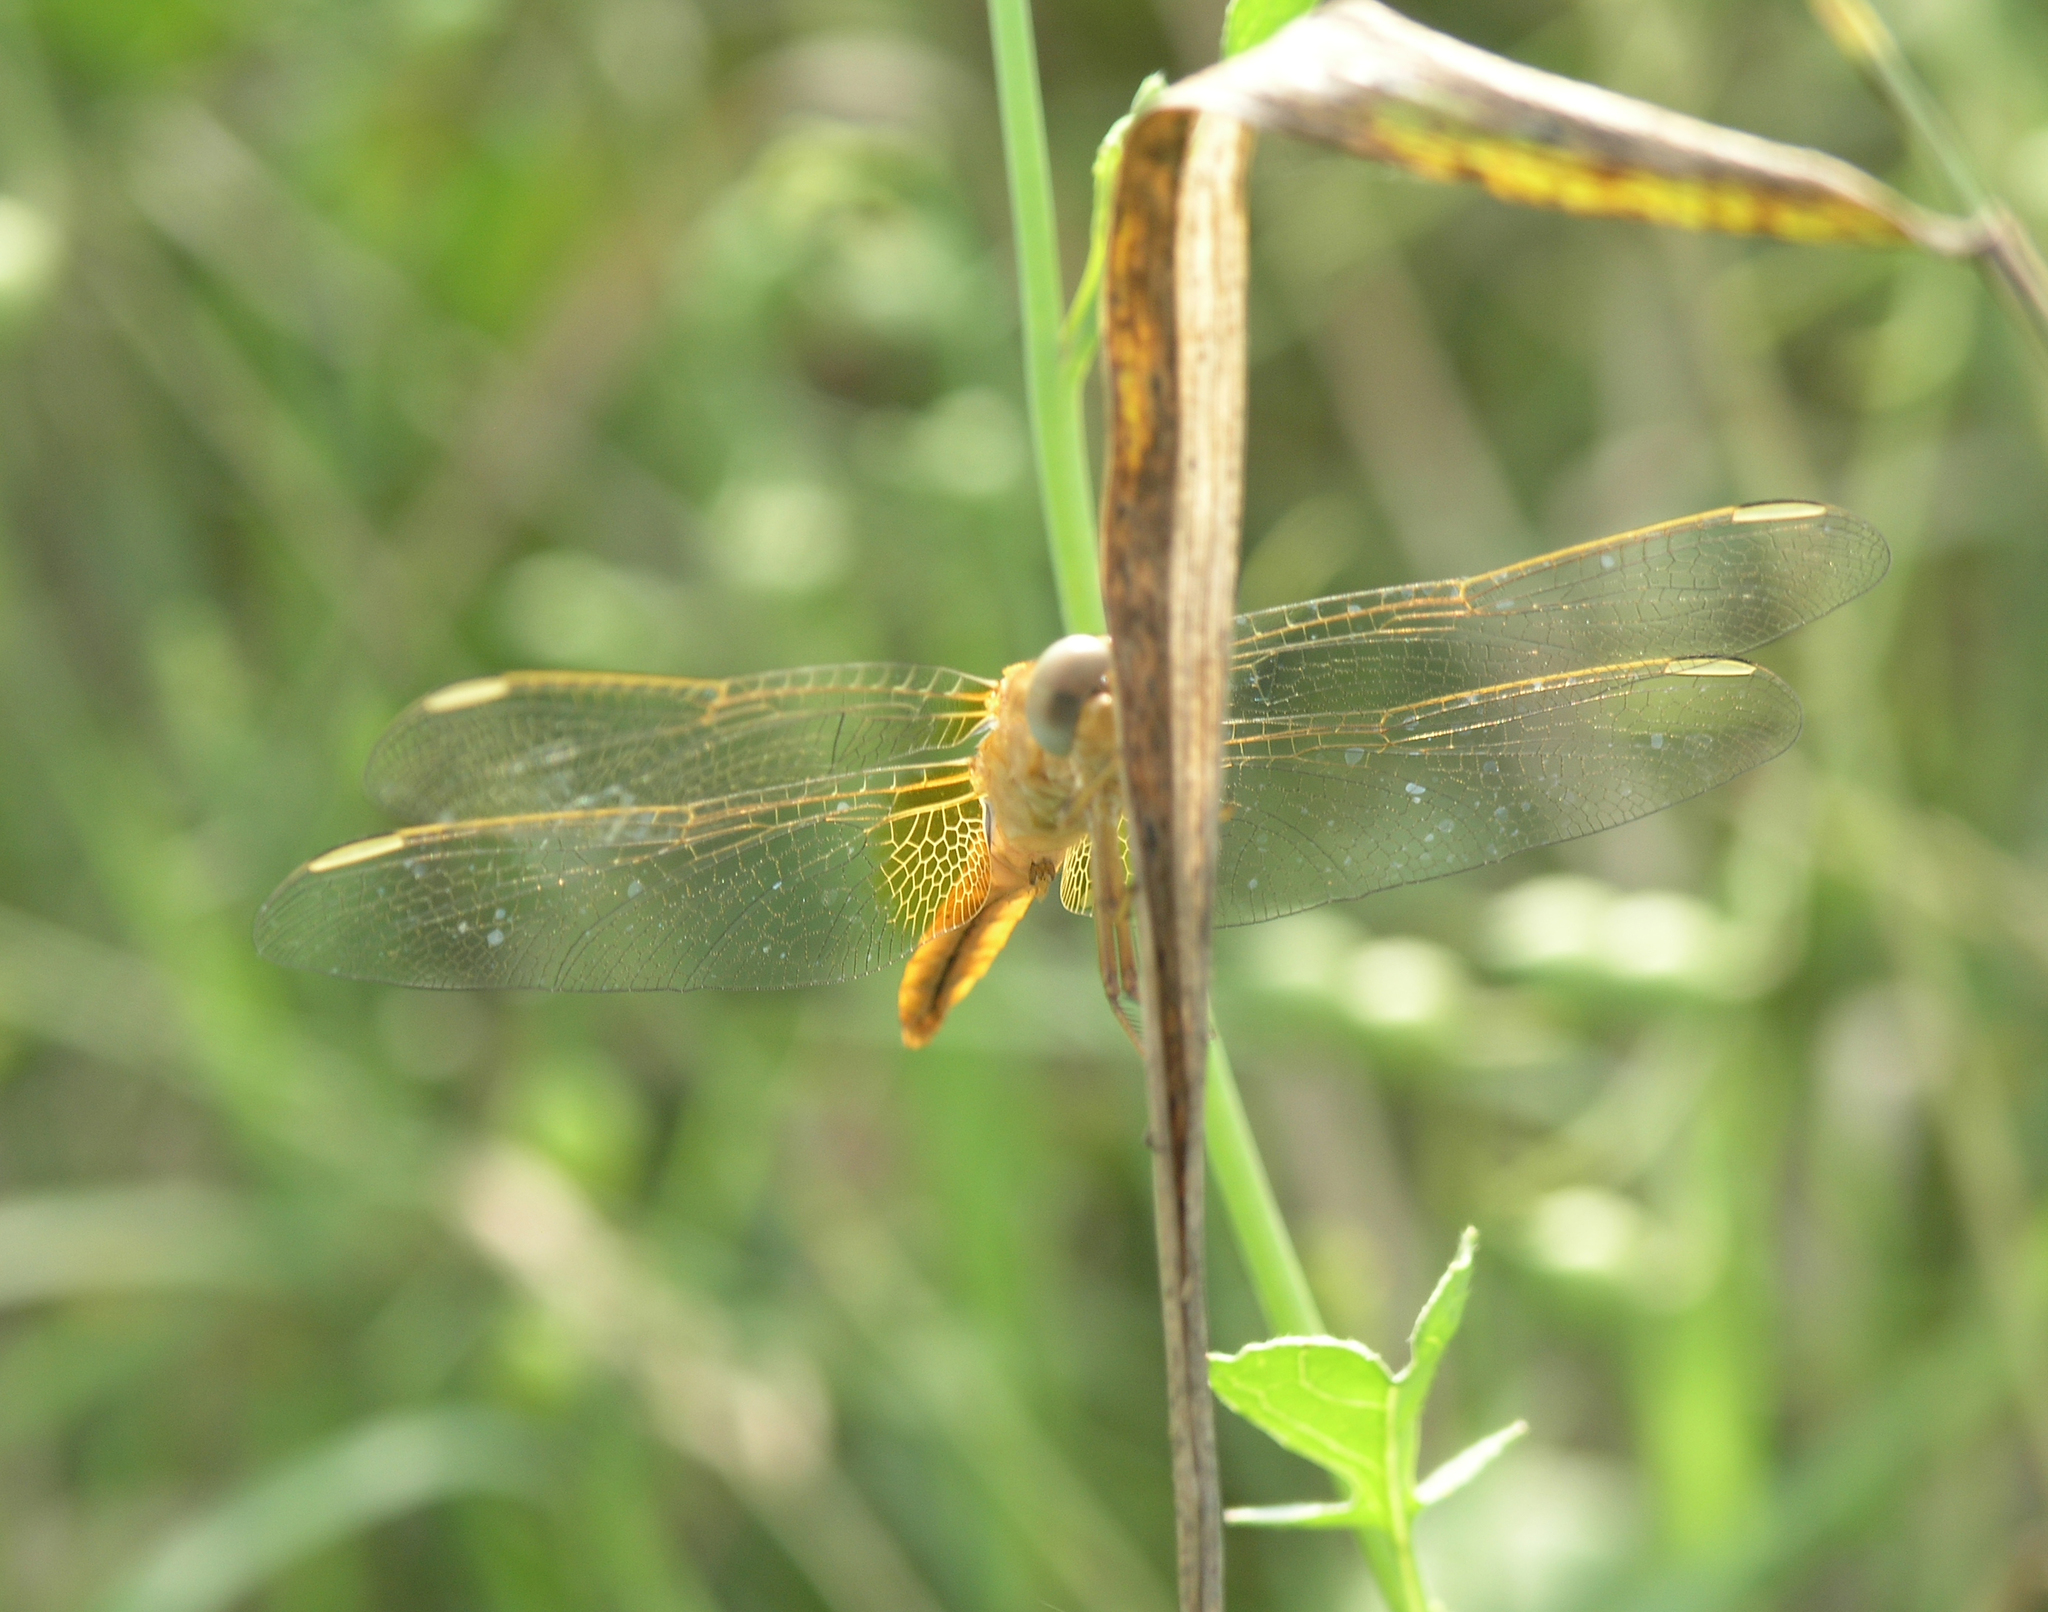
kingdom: Animalia
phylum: Arthropoda
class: Insecta
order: Odonata
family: Libellulidae
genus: Crocothemis
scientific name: Crocothemis erythraea
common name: Scarlet dragonfly
